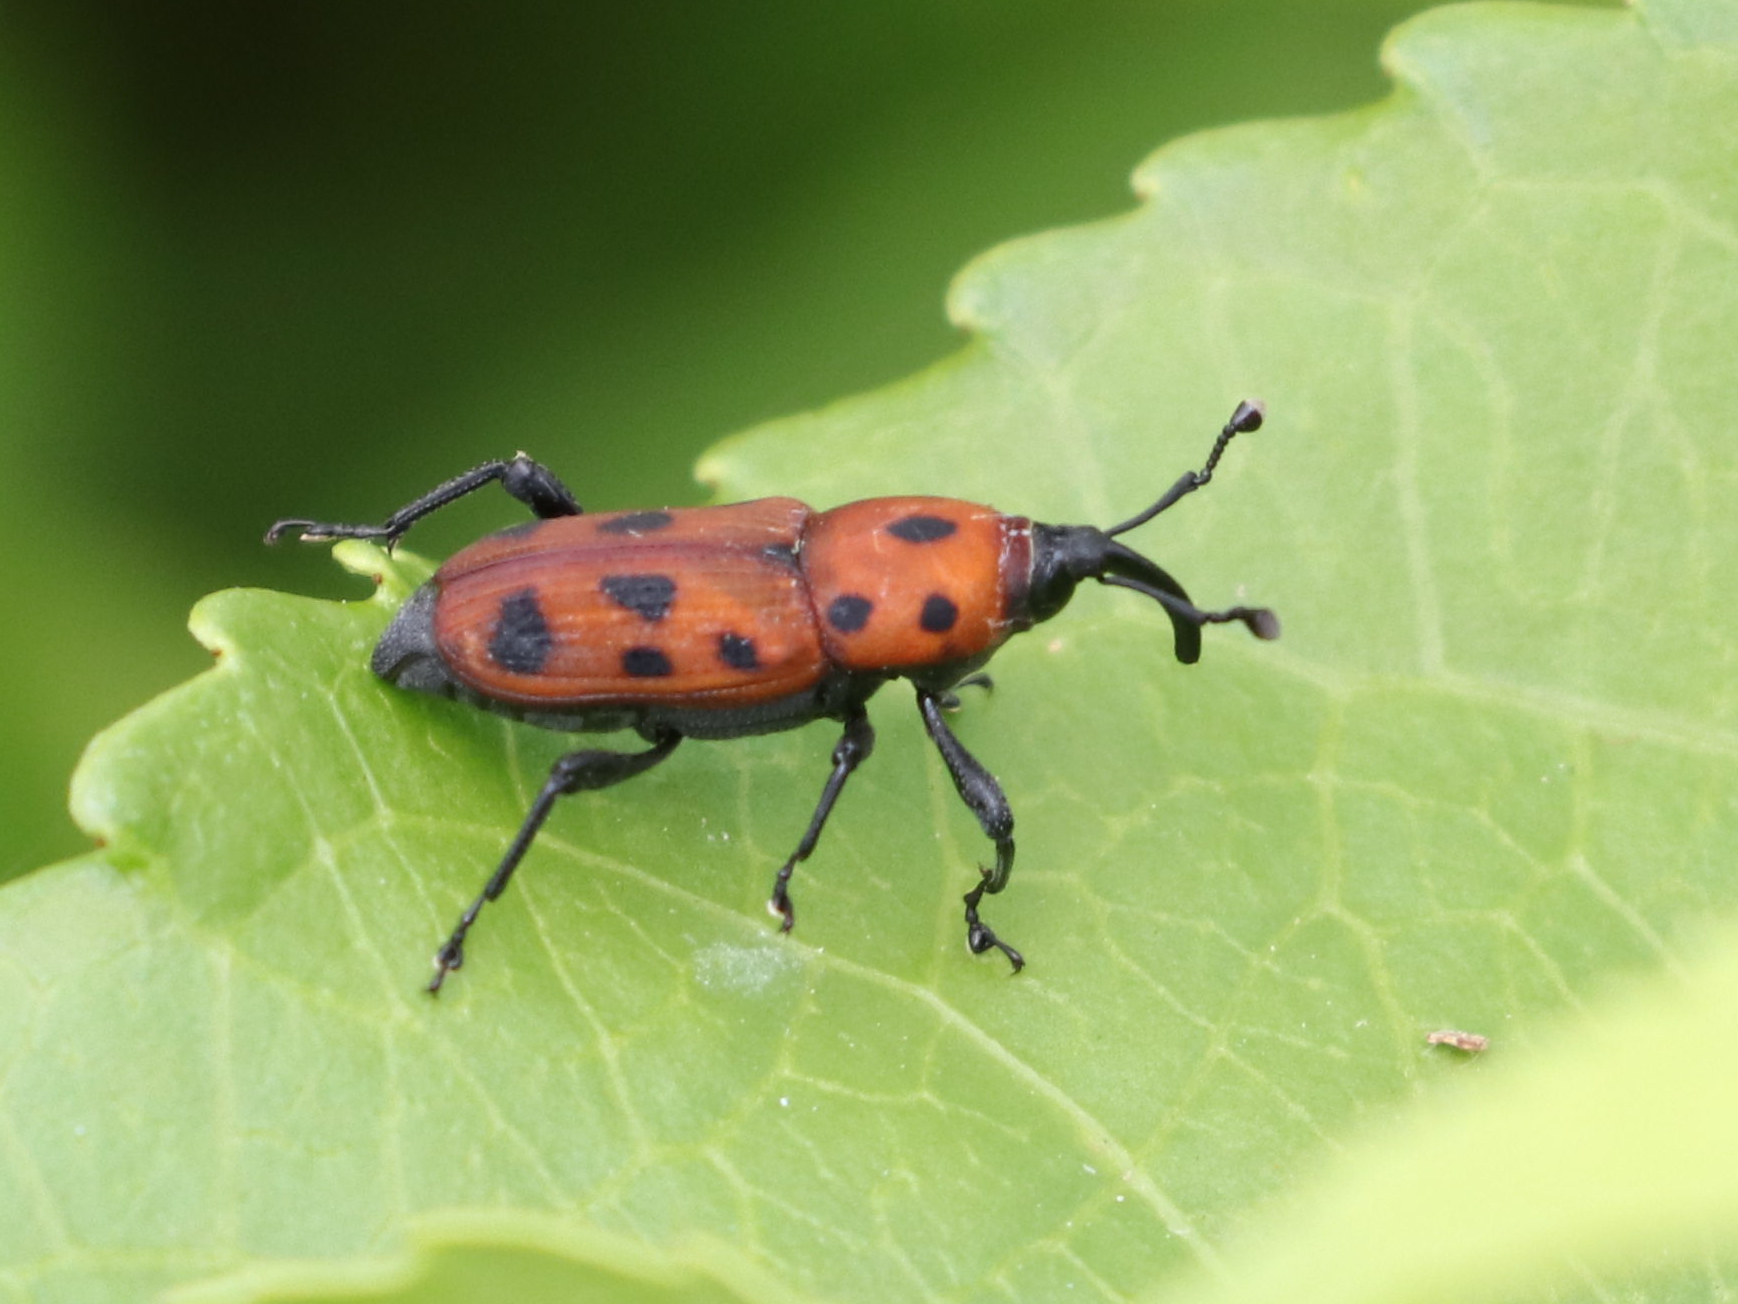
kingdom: Animalia
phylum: Arthropoda
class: Insecta
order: Coleoptera
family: Dryophthoridae
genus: Rhodobaenus
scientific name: Rhodobaenus tredecimpunctatus
